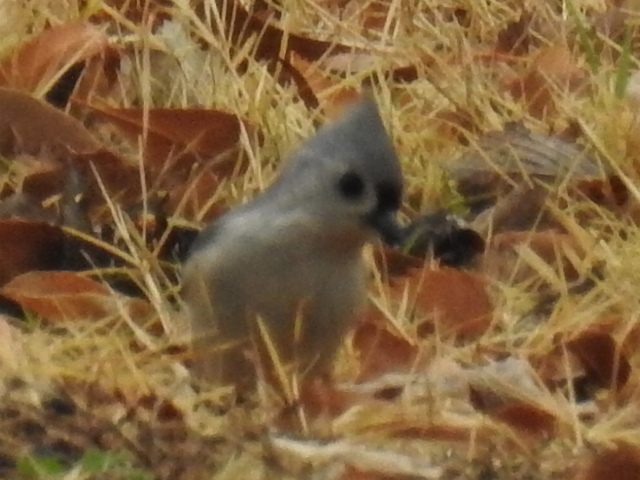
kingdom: Animalia
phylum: Chordata
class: Aves
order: Passeriformes
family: Paridae
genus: Baeolophus
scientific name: Baeolophus bicolor
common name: Tufted titmouse
